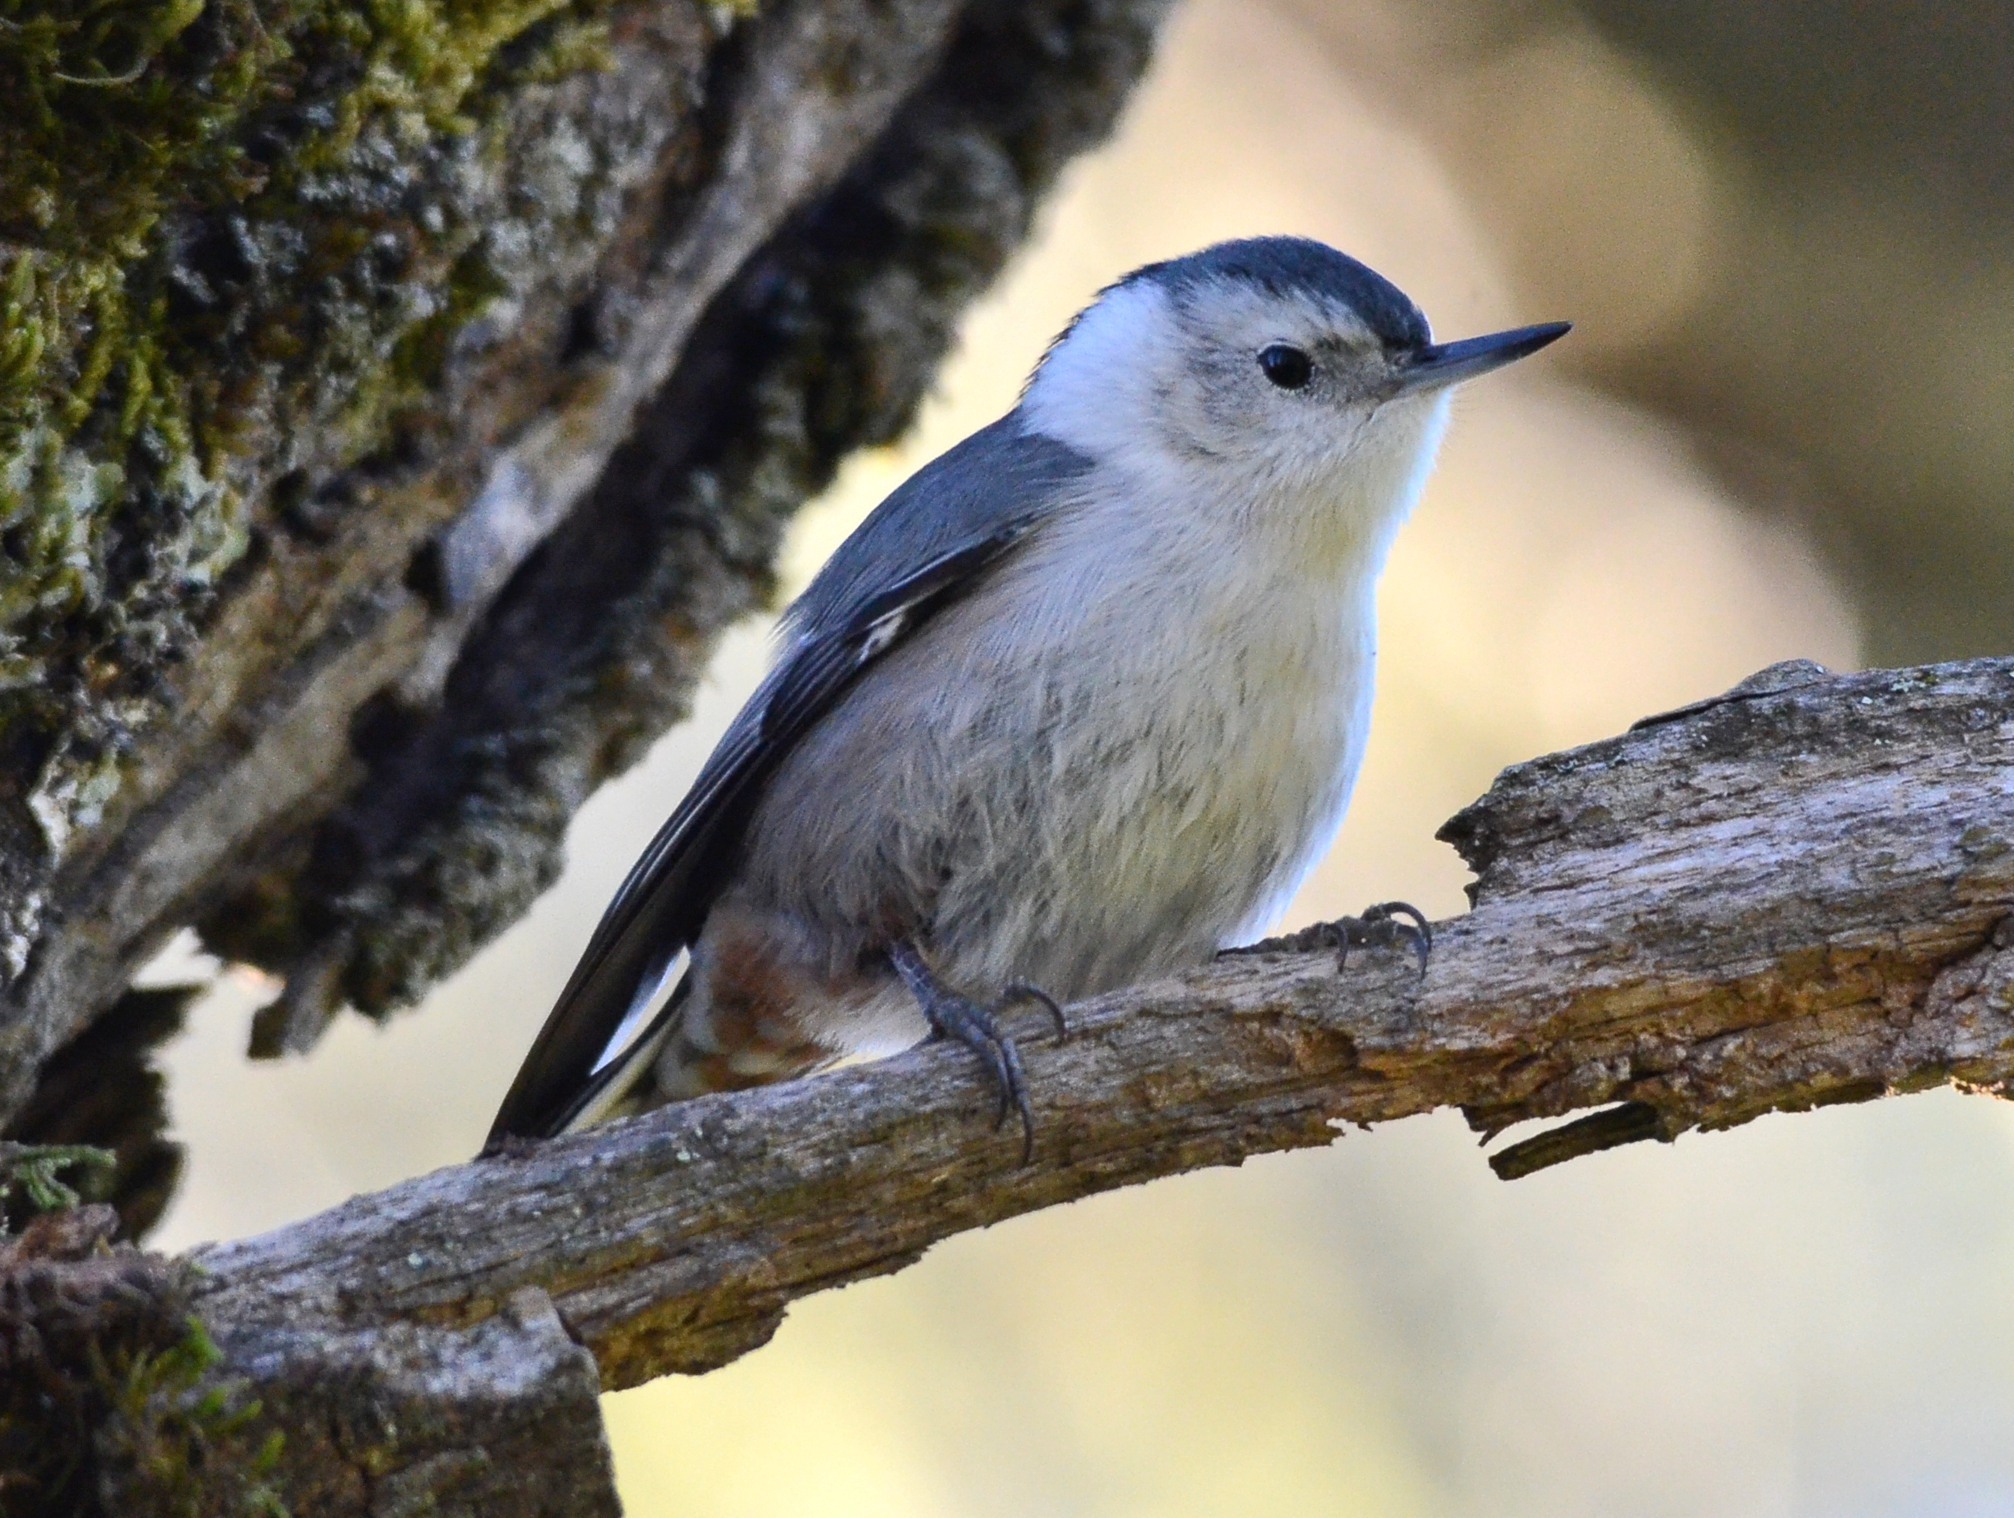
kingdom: Animalia
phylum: Chordata
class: Aves
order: Passeriformes
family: Sittidae
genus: Sitta
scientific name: Sitta carolinensis
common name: White-breasted nuthatch
